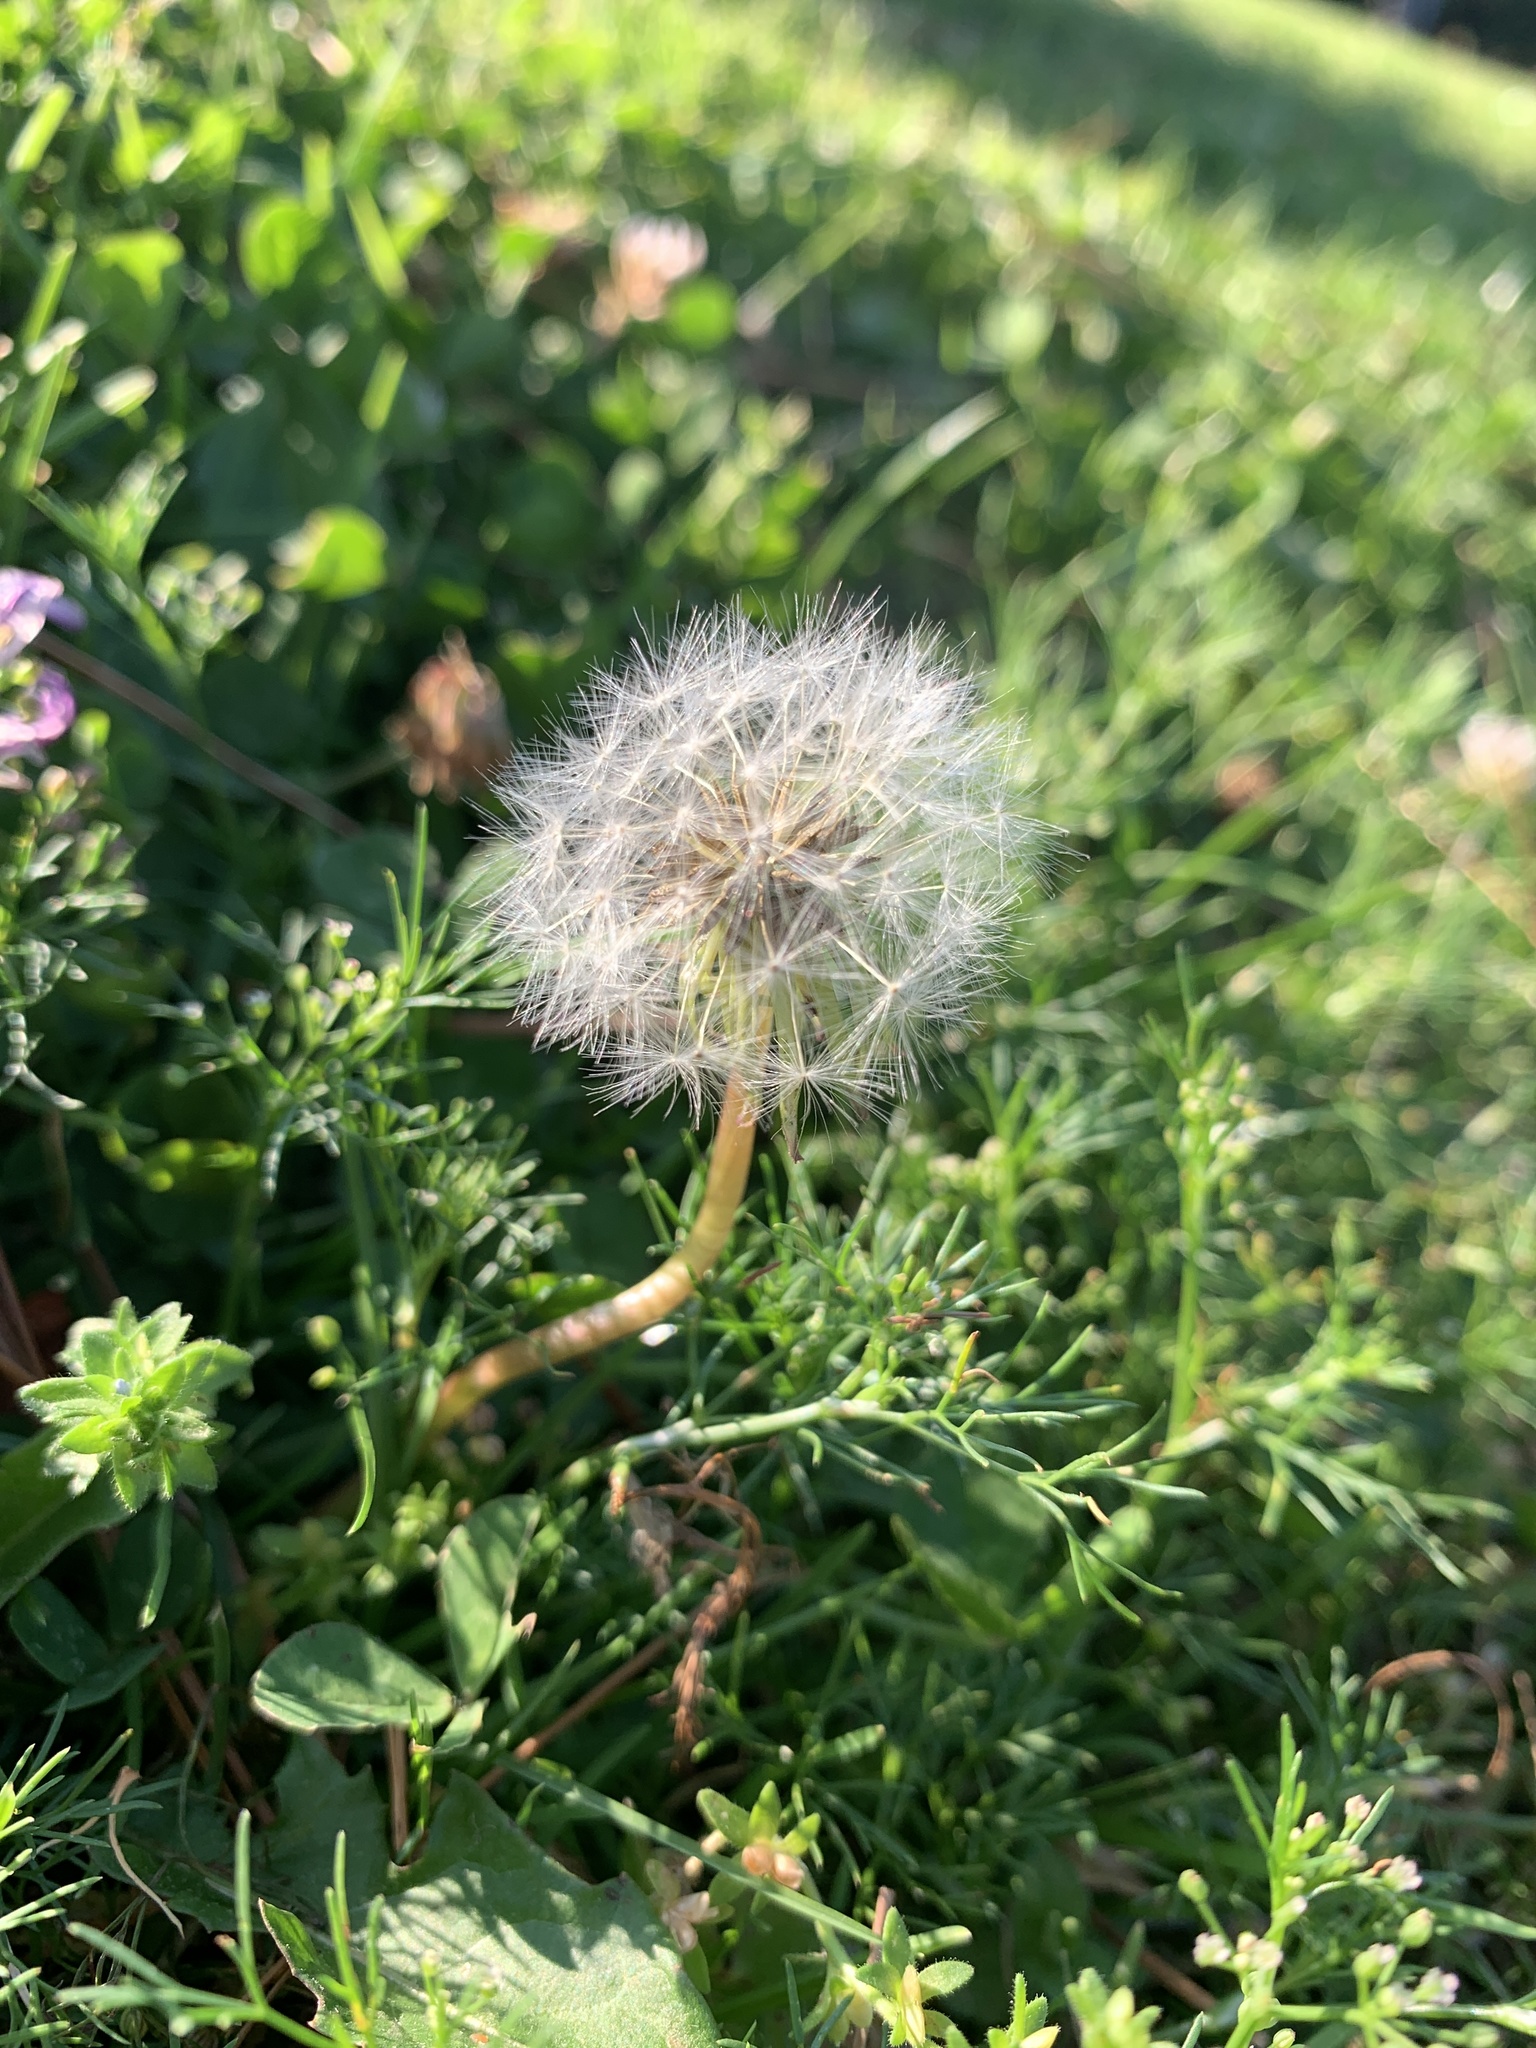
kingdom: Plantae
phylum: Tracheophyta
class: Magnoliopsida
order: Asterales
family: Asteraceae
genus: Taraxacum
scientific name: Taraxacum officinale
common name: Common dandelion
